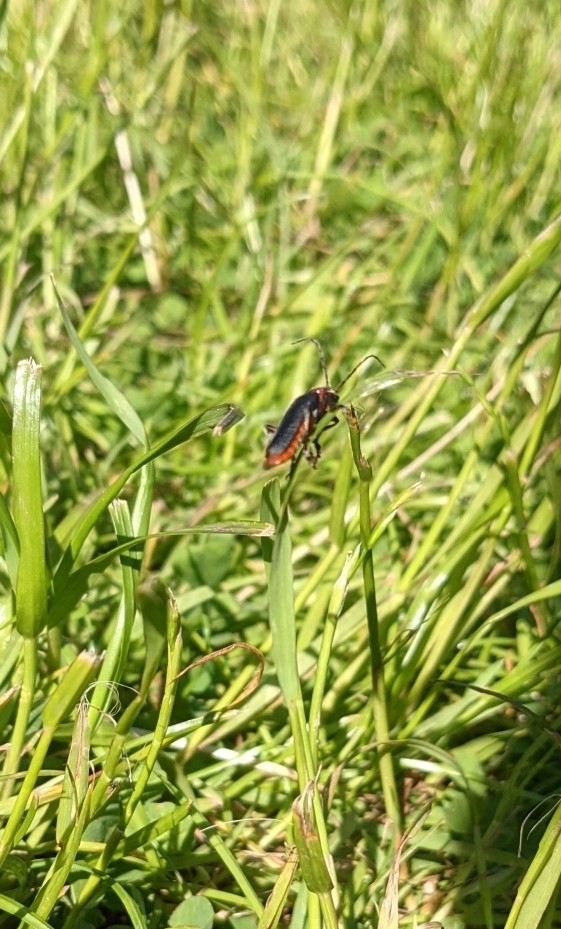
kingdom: Animalia
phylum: Arthropoda
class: Insecta
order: Coleoptera
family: Cantharidae
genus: Cantharis
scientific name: Cantharis rustica
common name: Soldier beetle
